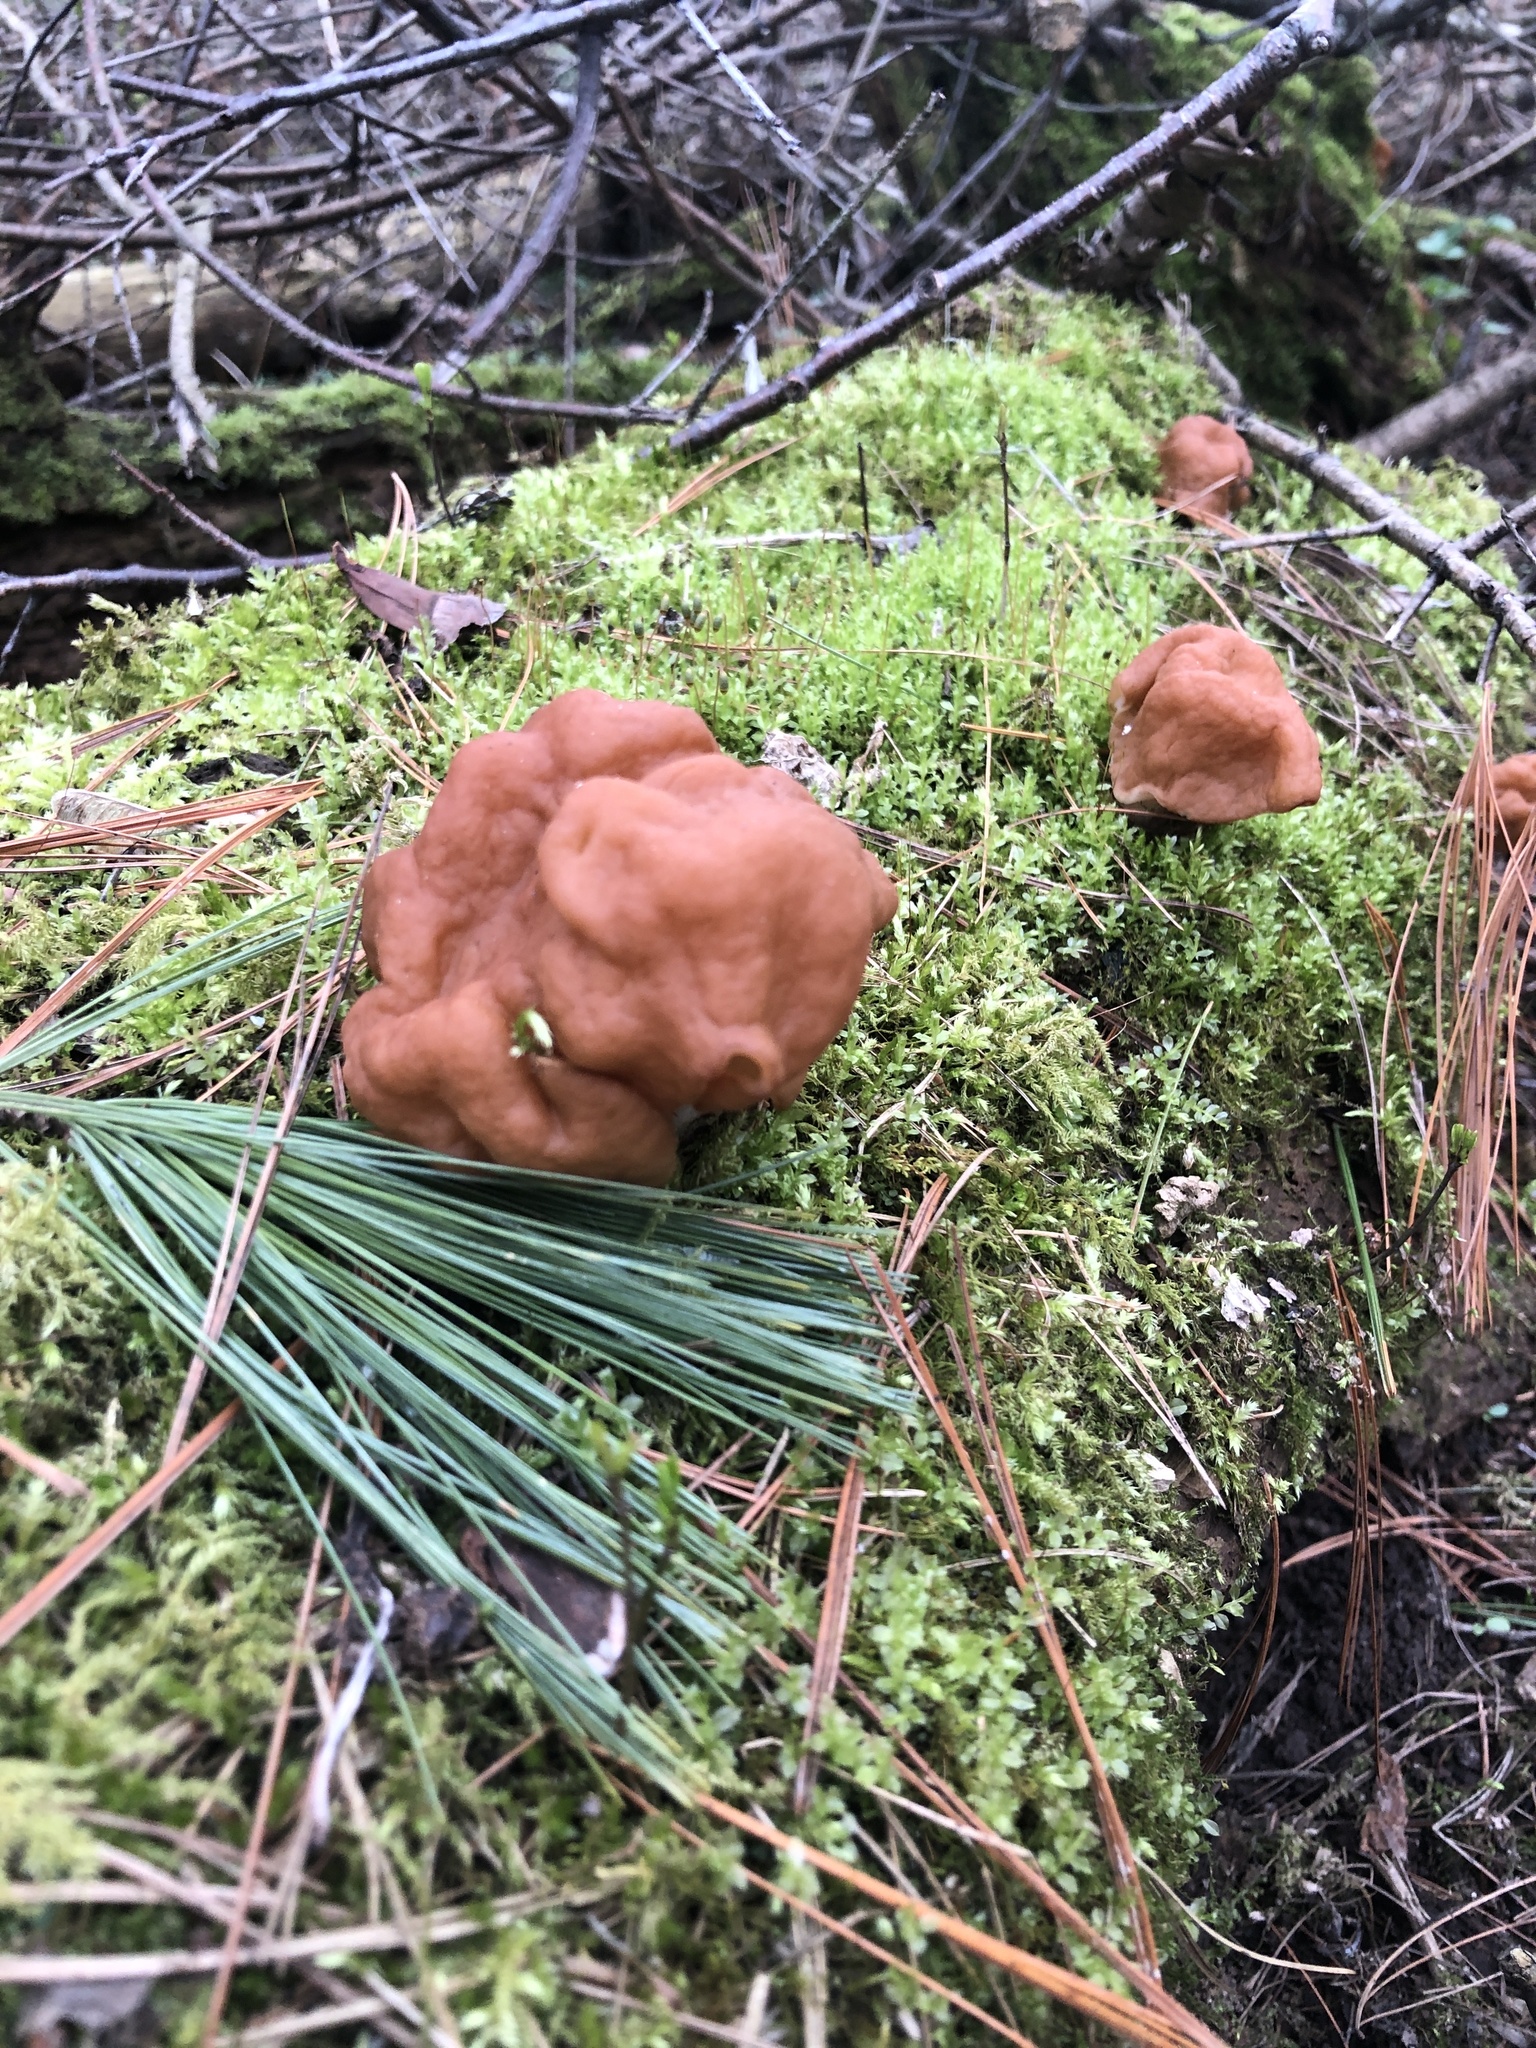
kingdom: Fungi
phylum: Ascomycota
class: Pezizomycetes
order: Pezizales
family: Discinaceae
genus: Gyromitra
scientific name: Gyromitra korfii
